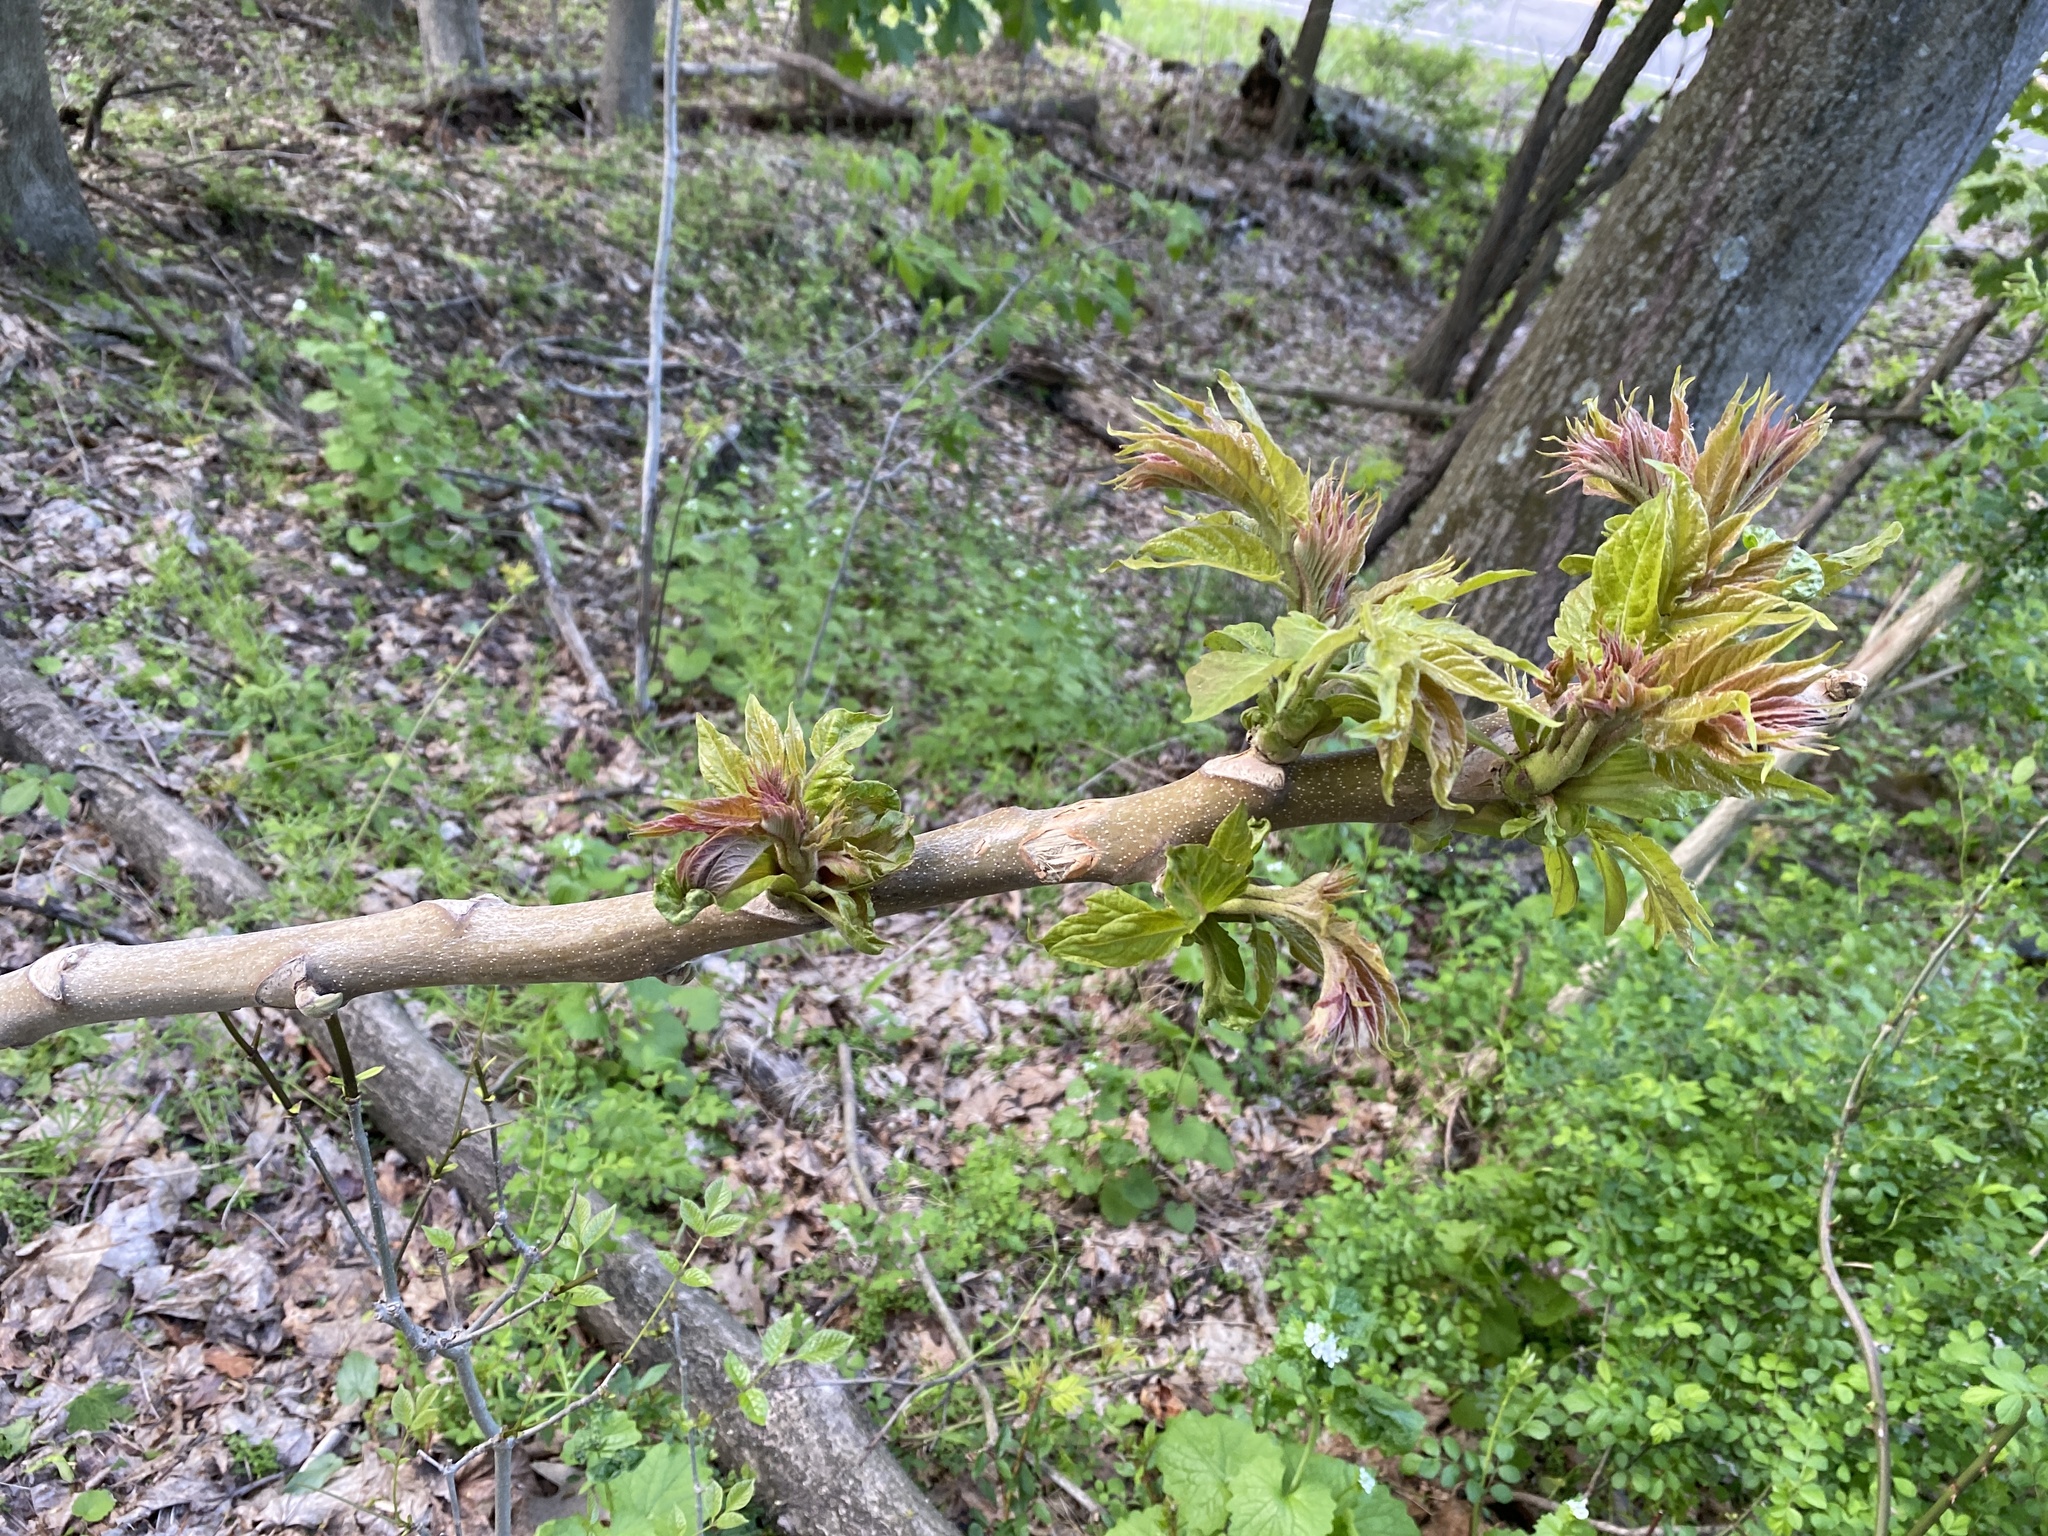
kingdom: Plantae
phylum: Tracheophyta
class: Magnoliopsida
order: Sapindales
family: Simaroubaceae
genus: Ailanthus
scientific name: Ailanthus altissima
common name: Tree-of-heaven
